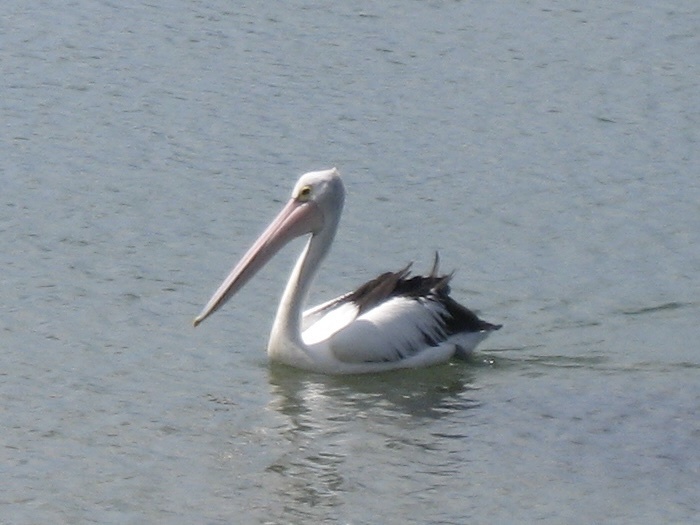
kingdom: Animalia
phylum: Chordata
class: Aves
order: Pelecaniformes
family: Pelecanidae
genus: Pelecanus
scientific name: Pelecanus conspicillatus
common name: Australian pelican
